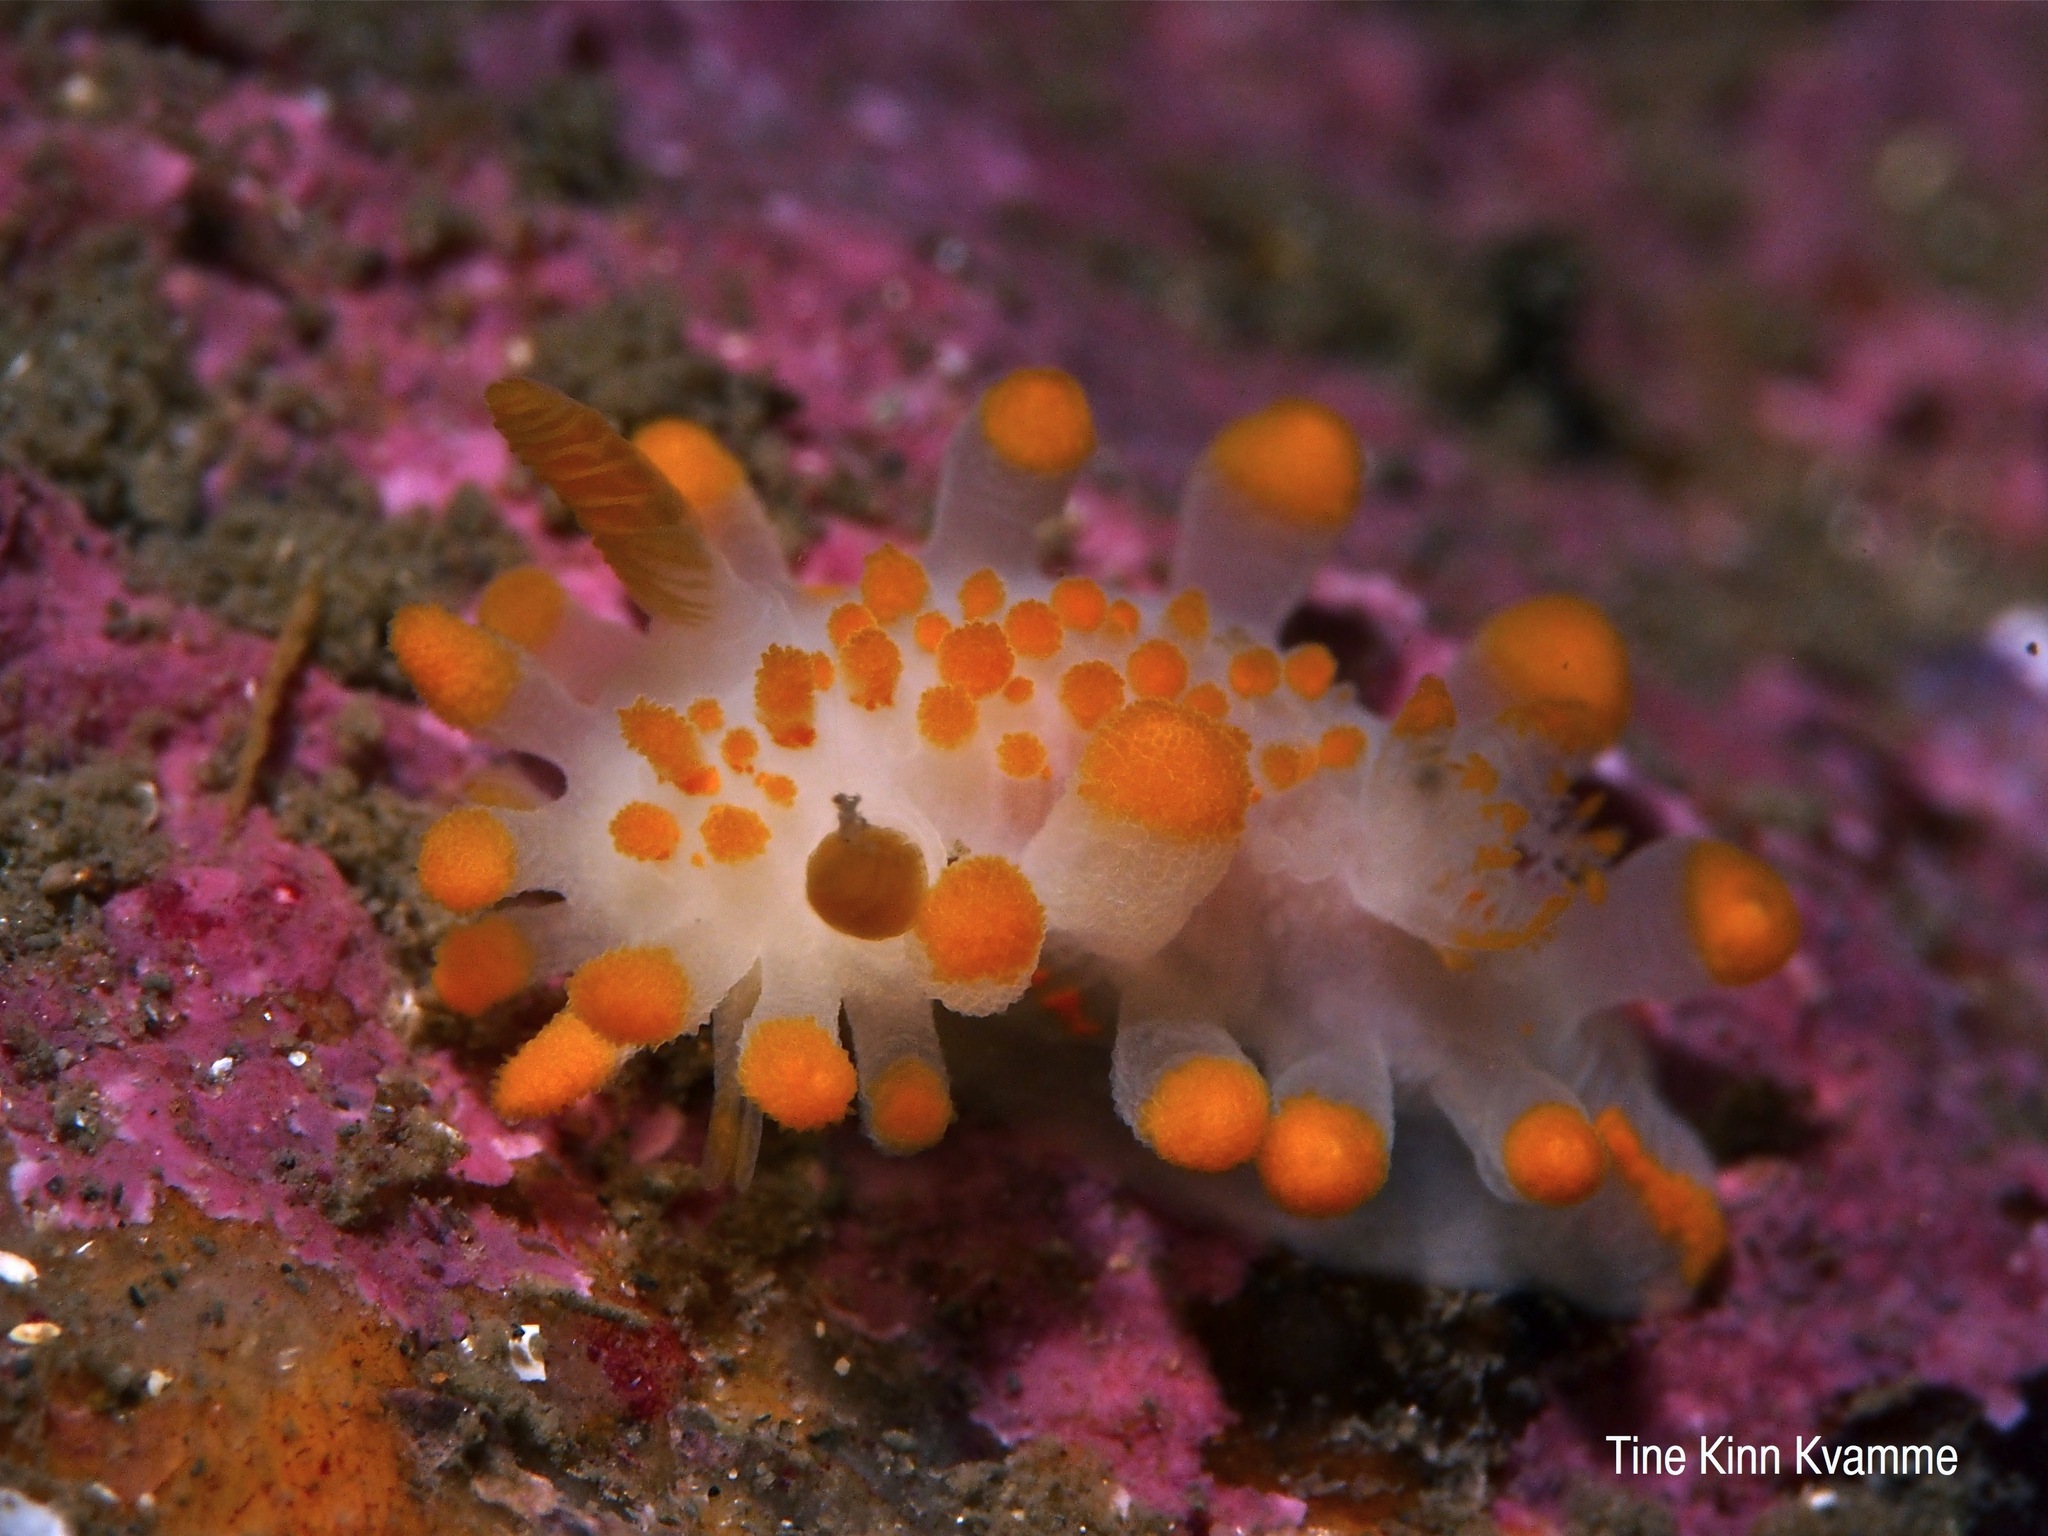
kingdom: Animalia
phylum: Mollusca
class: Gastropoda
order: Nudibranchia
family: Polyceridae
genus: Limacia
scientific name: Limacia clavigera
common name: Orange-clubbed sea slug
